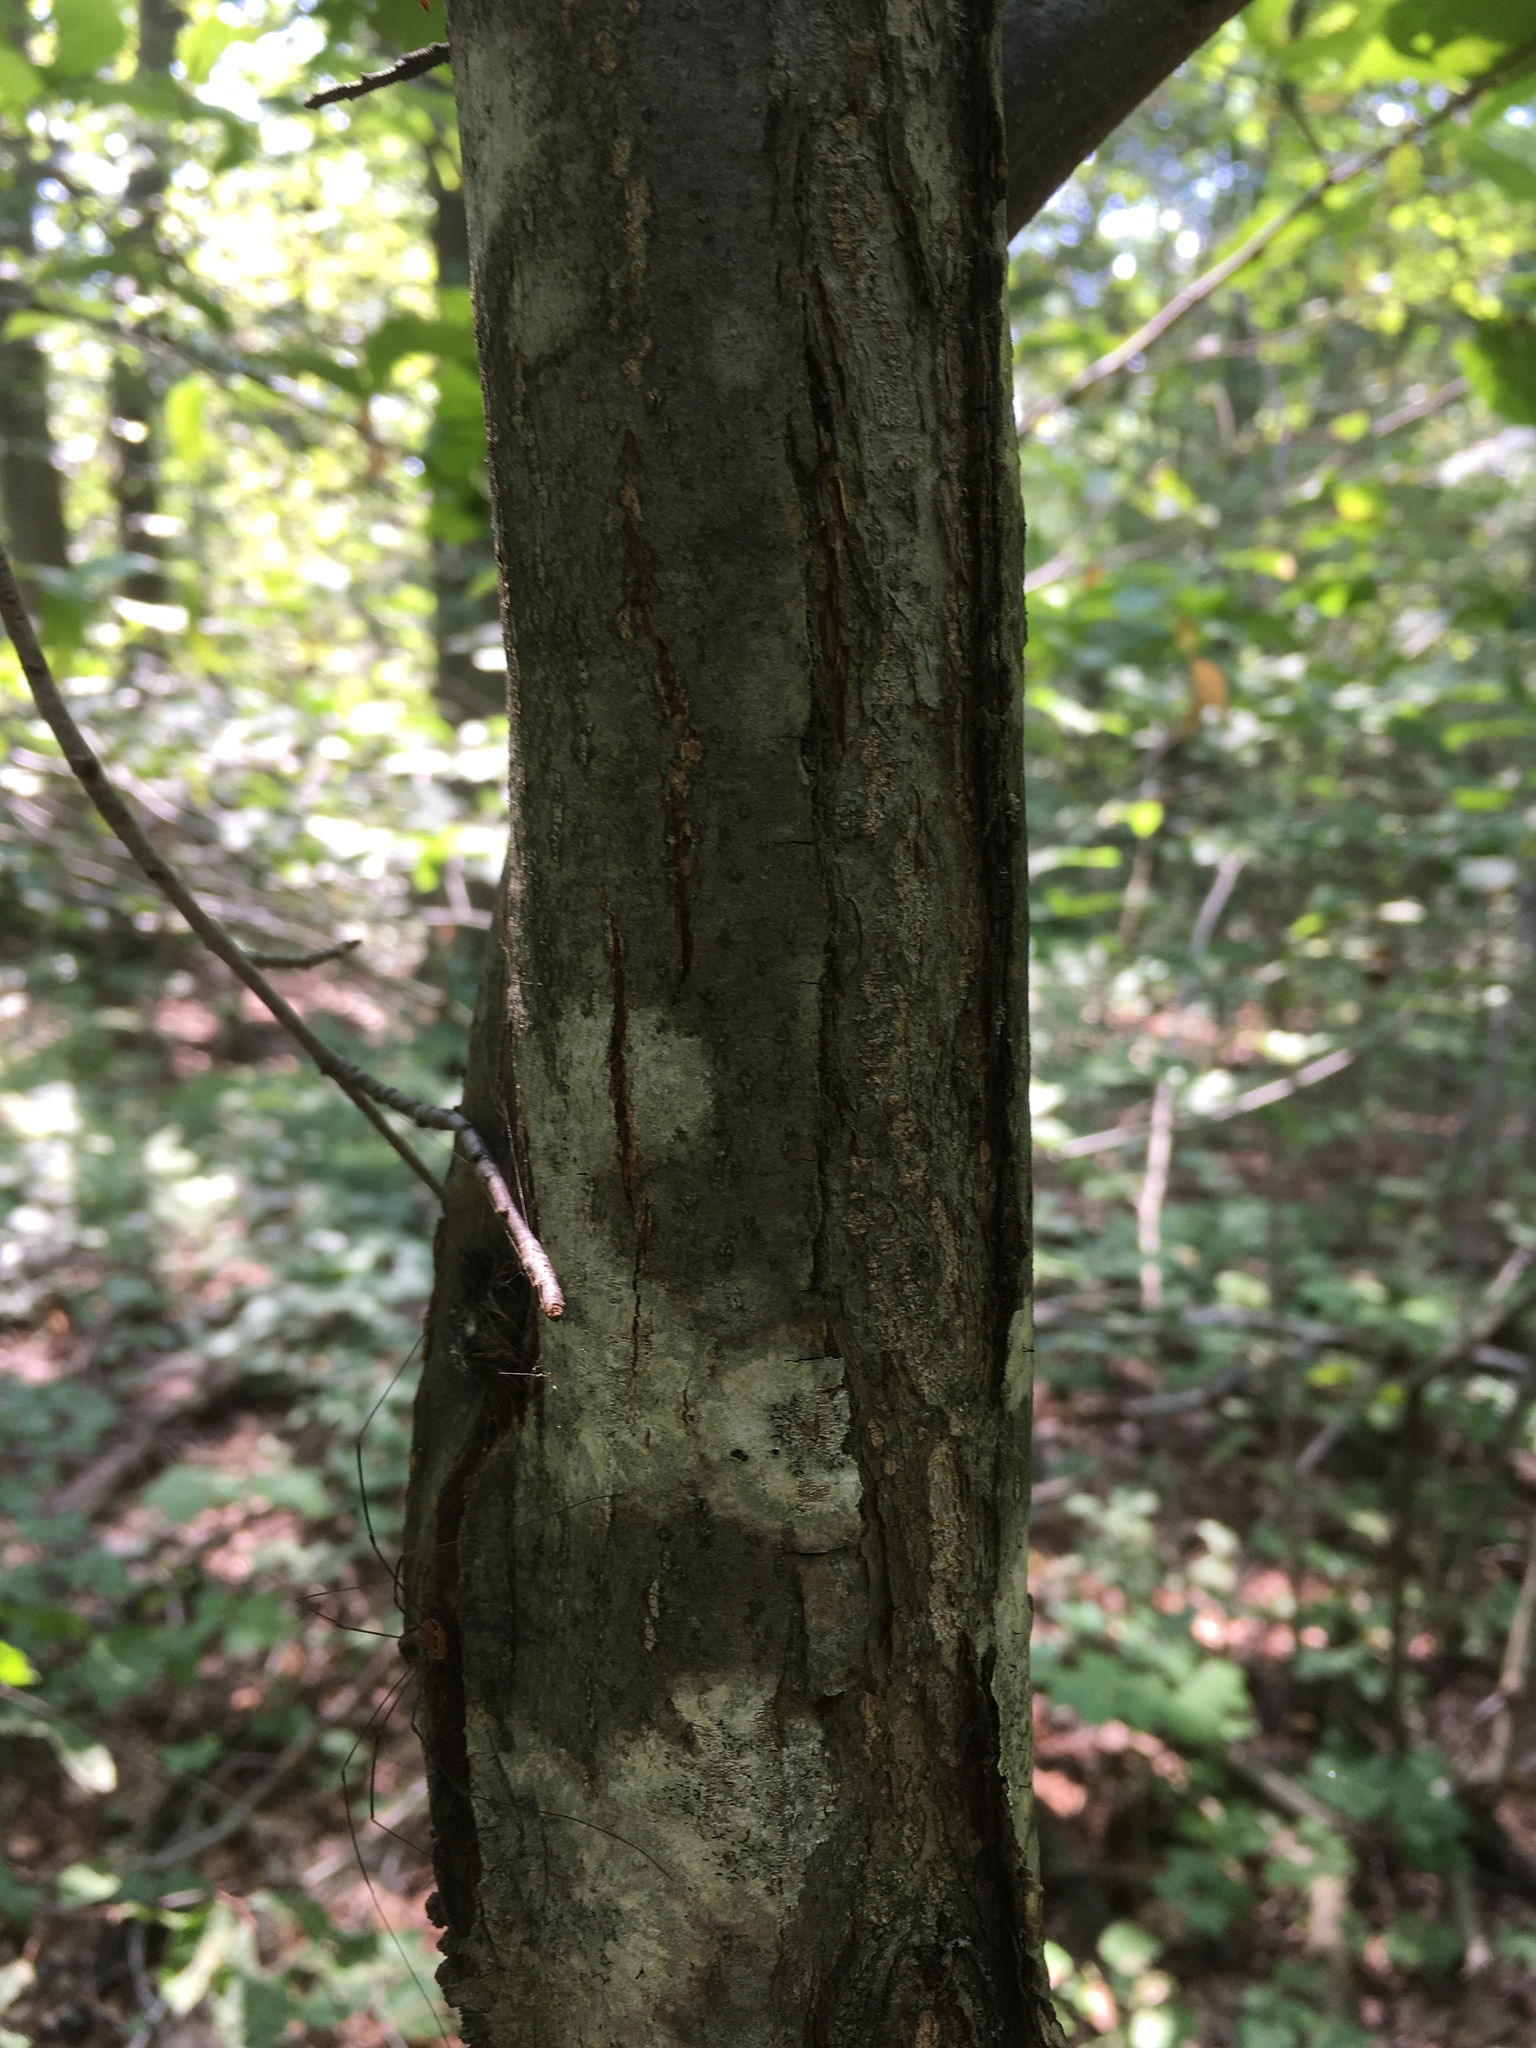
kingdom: Plantae
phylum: Tracheophyta
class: Magnoliopsida
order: Fagales
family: Fagaceae
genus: Castanea
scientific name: Castanea dentata
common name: American chestnut
